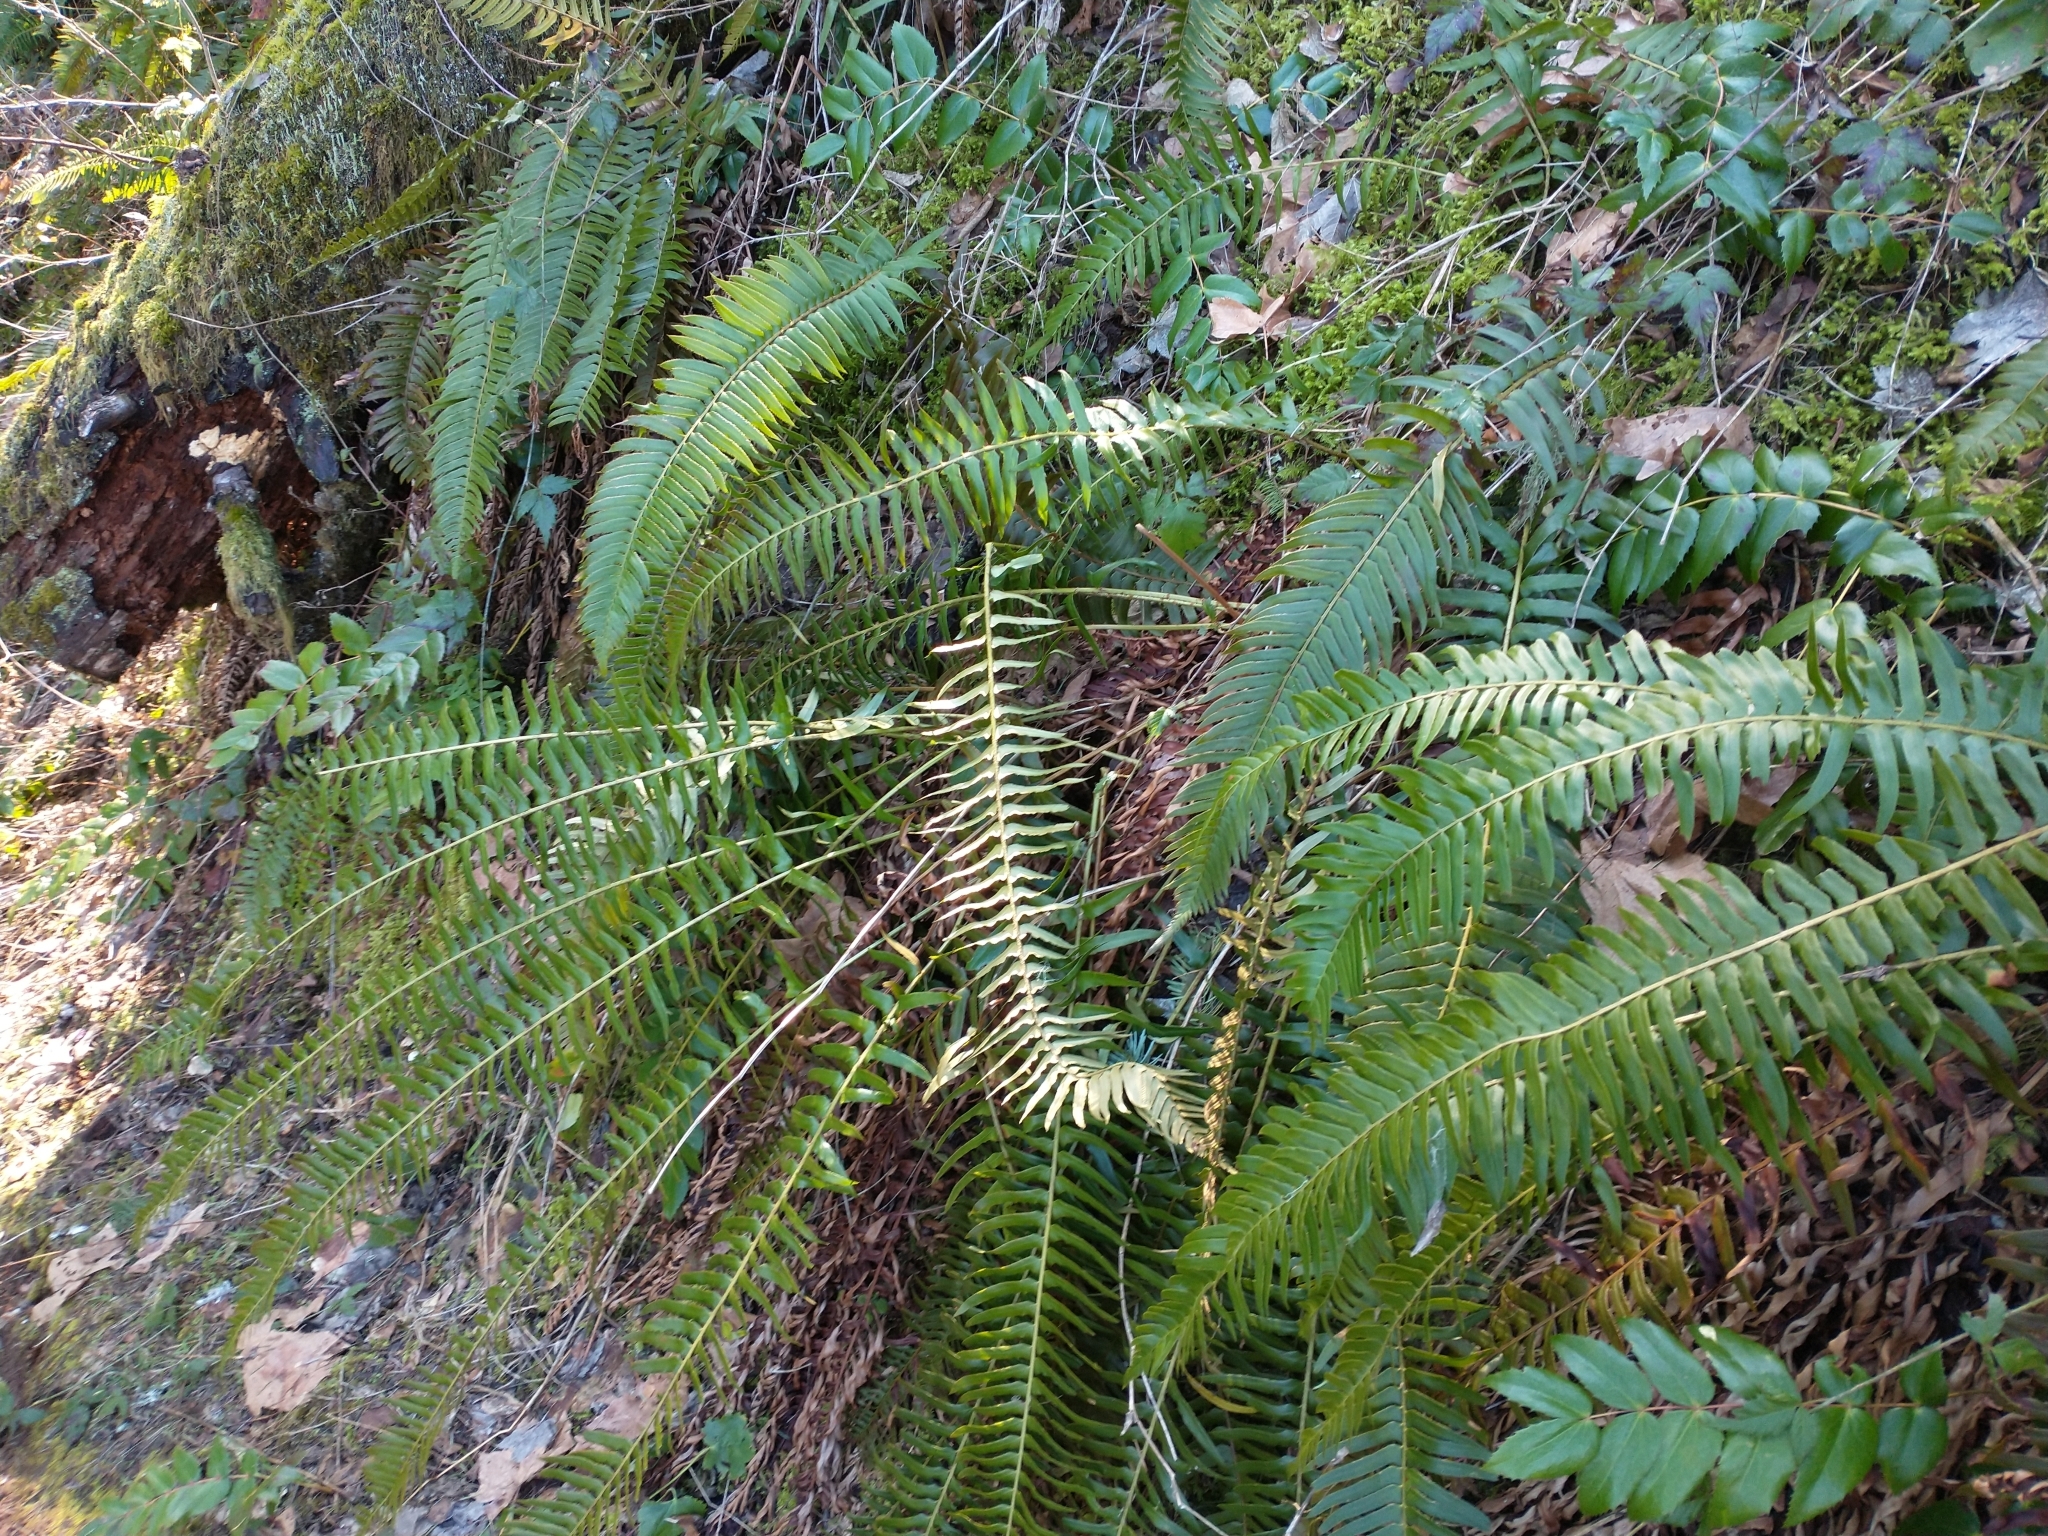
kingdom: Plantae
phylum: Tracheophyta
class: Polypodiopsida
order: Polypodiales
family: Dryopteridaceae
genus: Polystichum
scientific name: Polystichum munitum
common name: Western sword-fern
